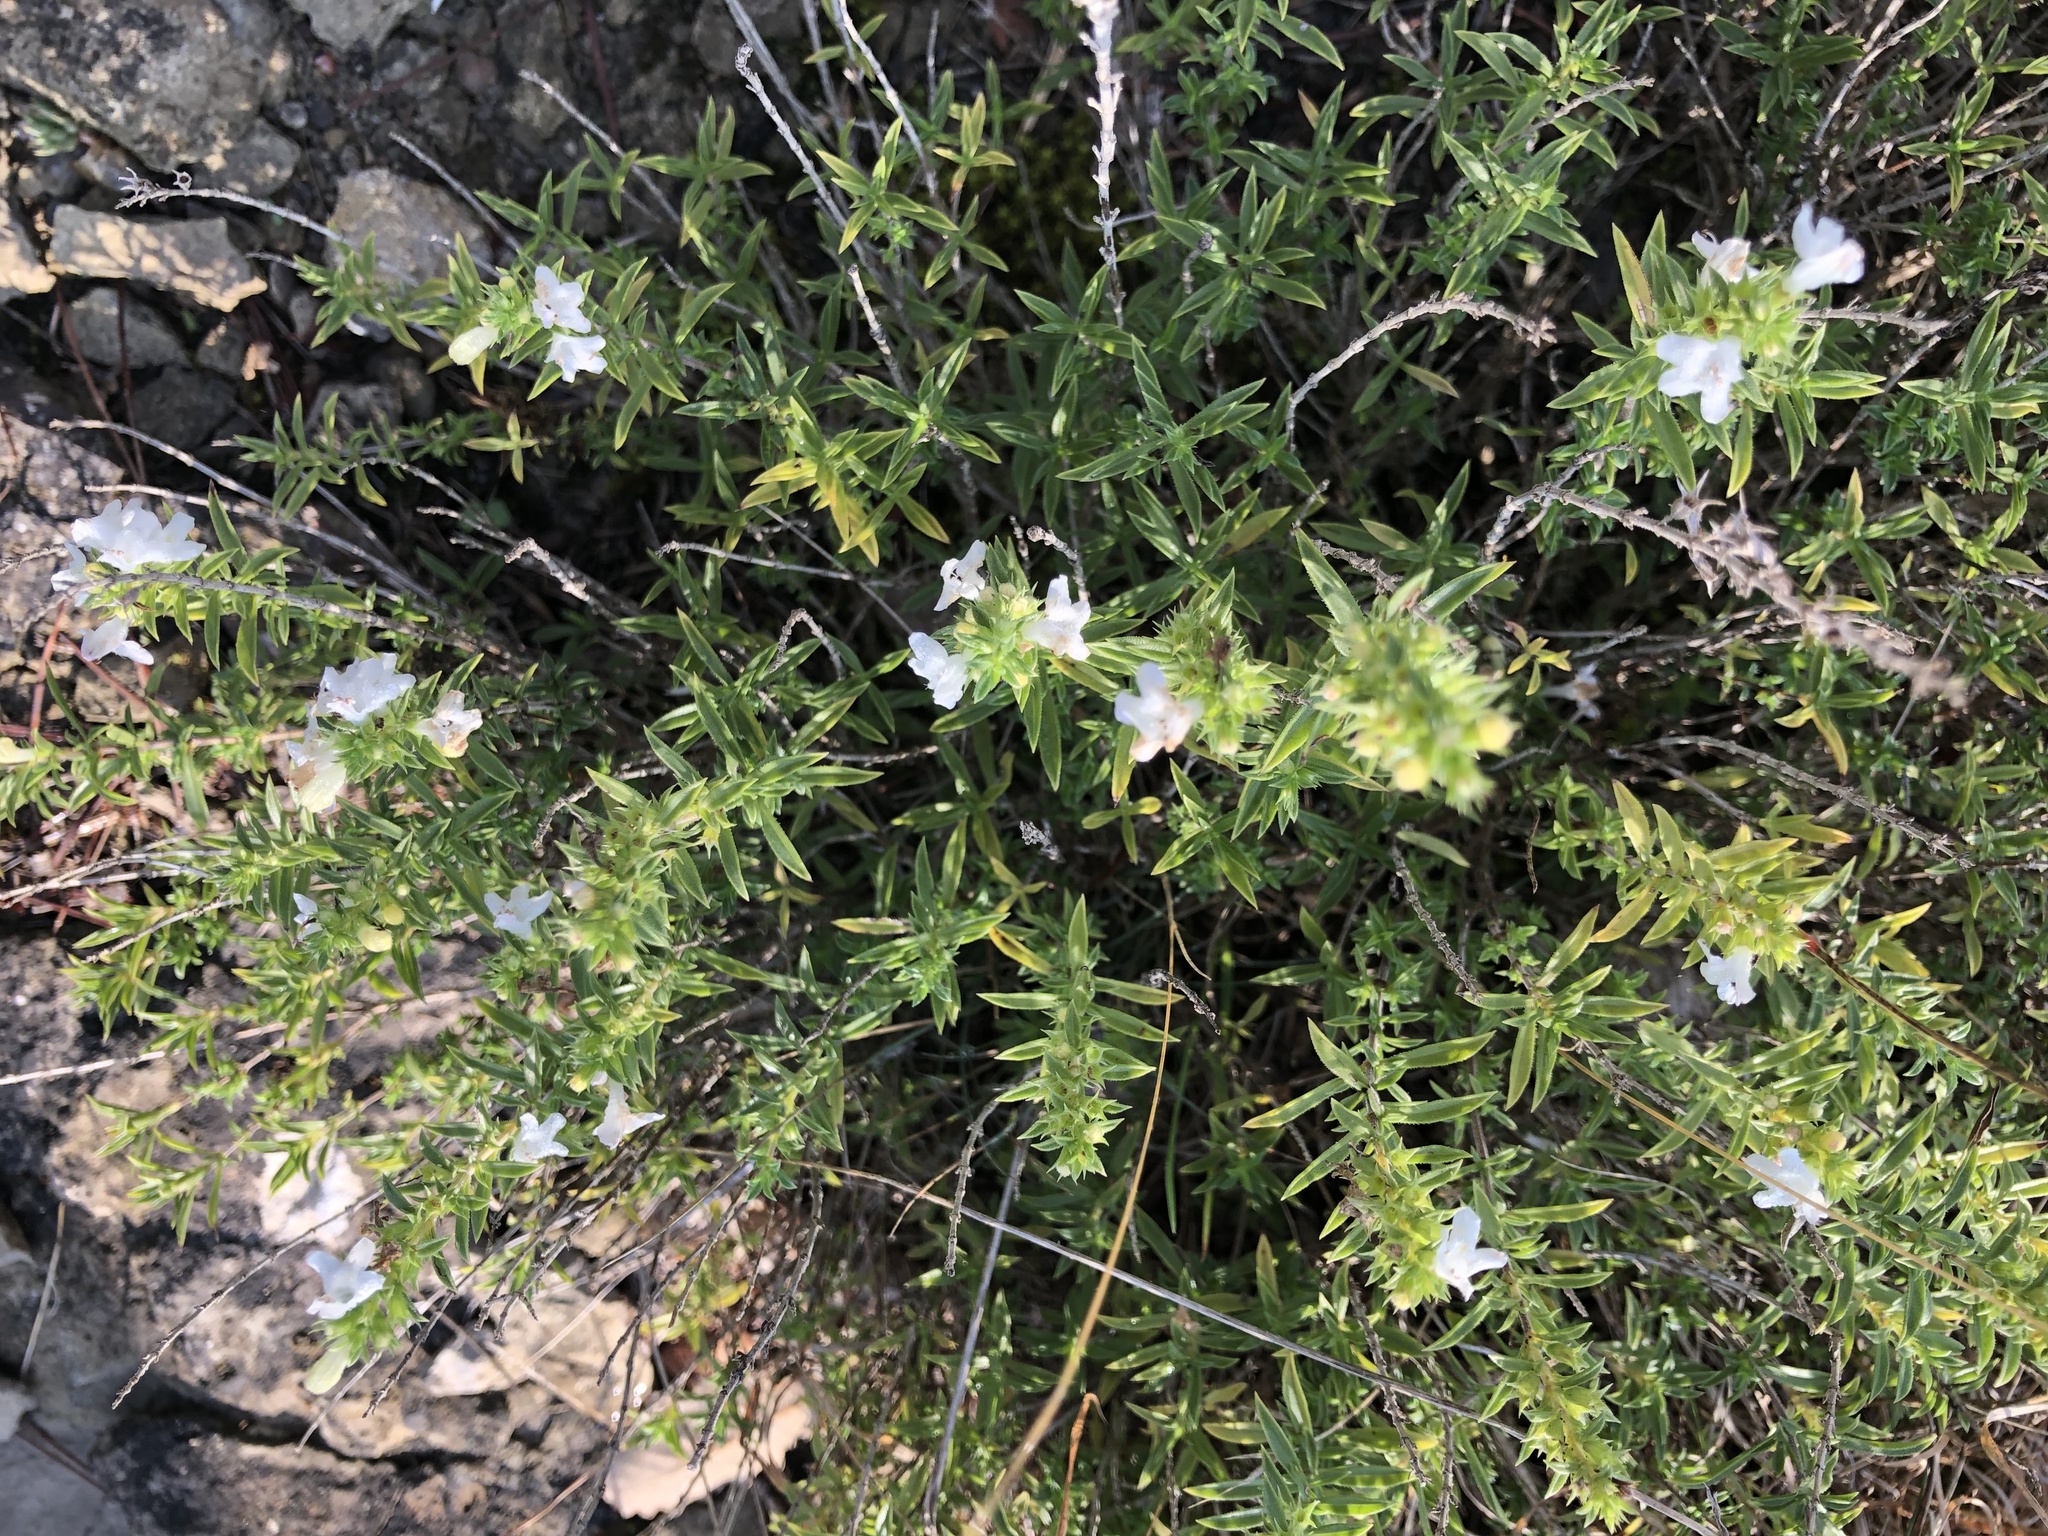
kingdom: Plantae
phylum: Tracheophyta
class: Magnoliopsida
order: Lamiales
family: Lamiaceae
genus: Satureja
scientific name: Satureja montana
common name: Winter savory
